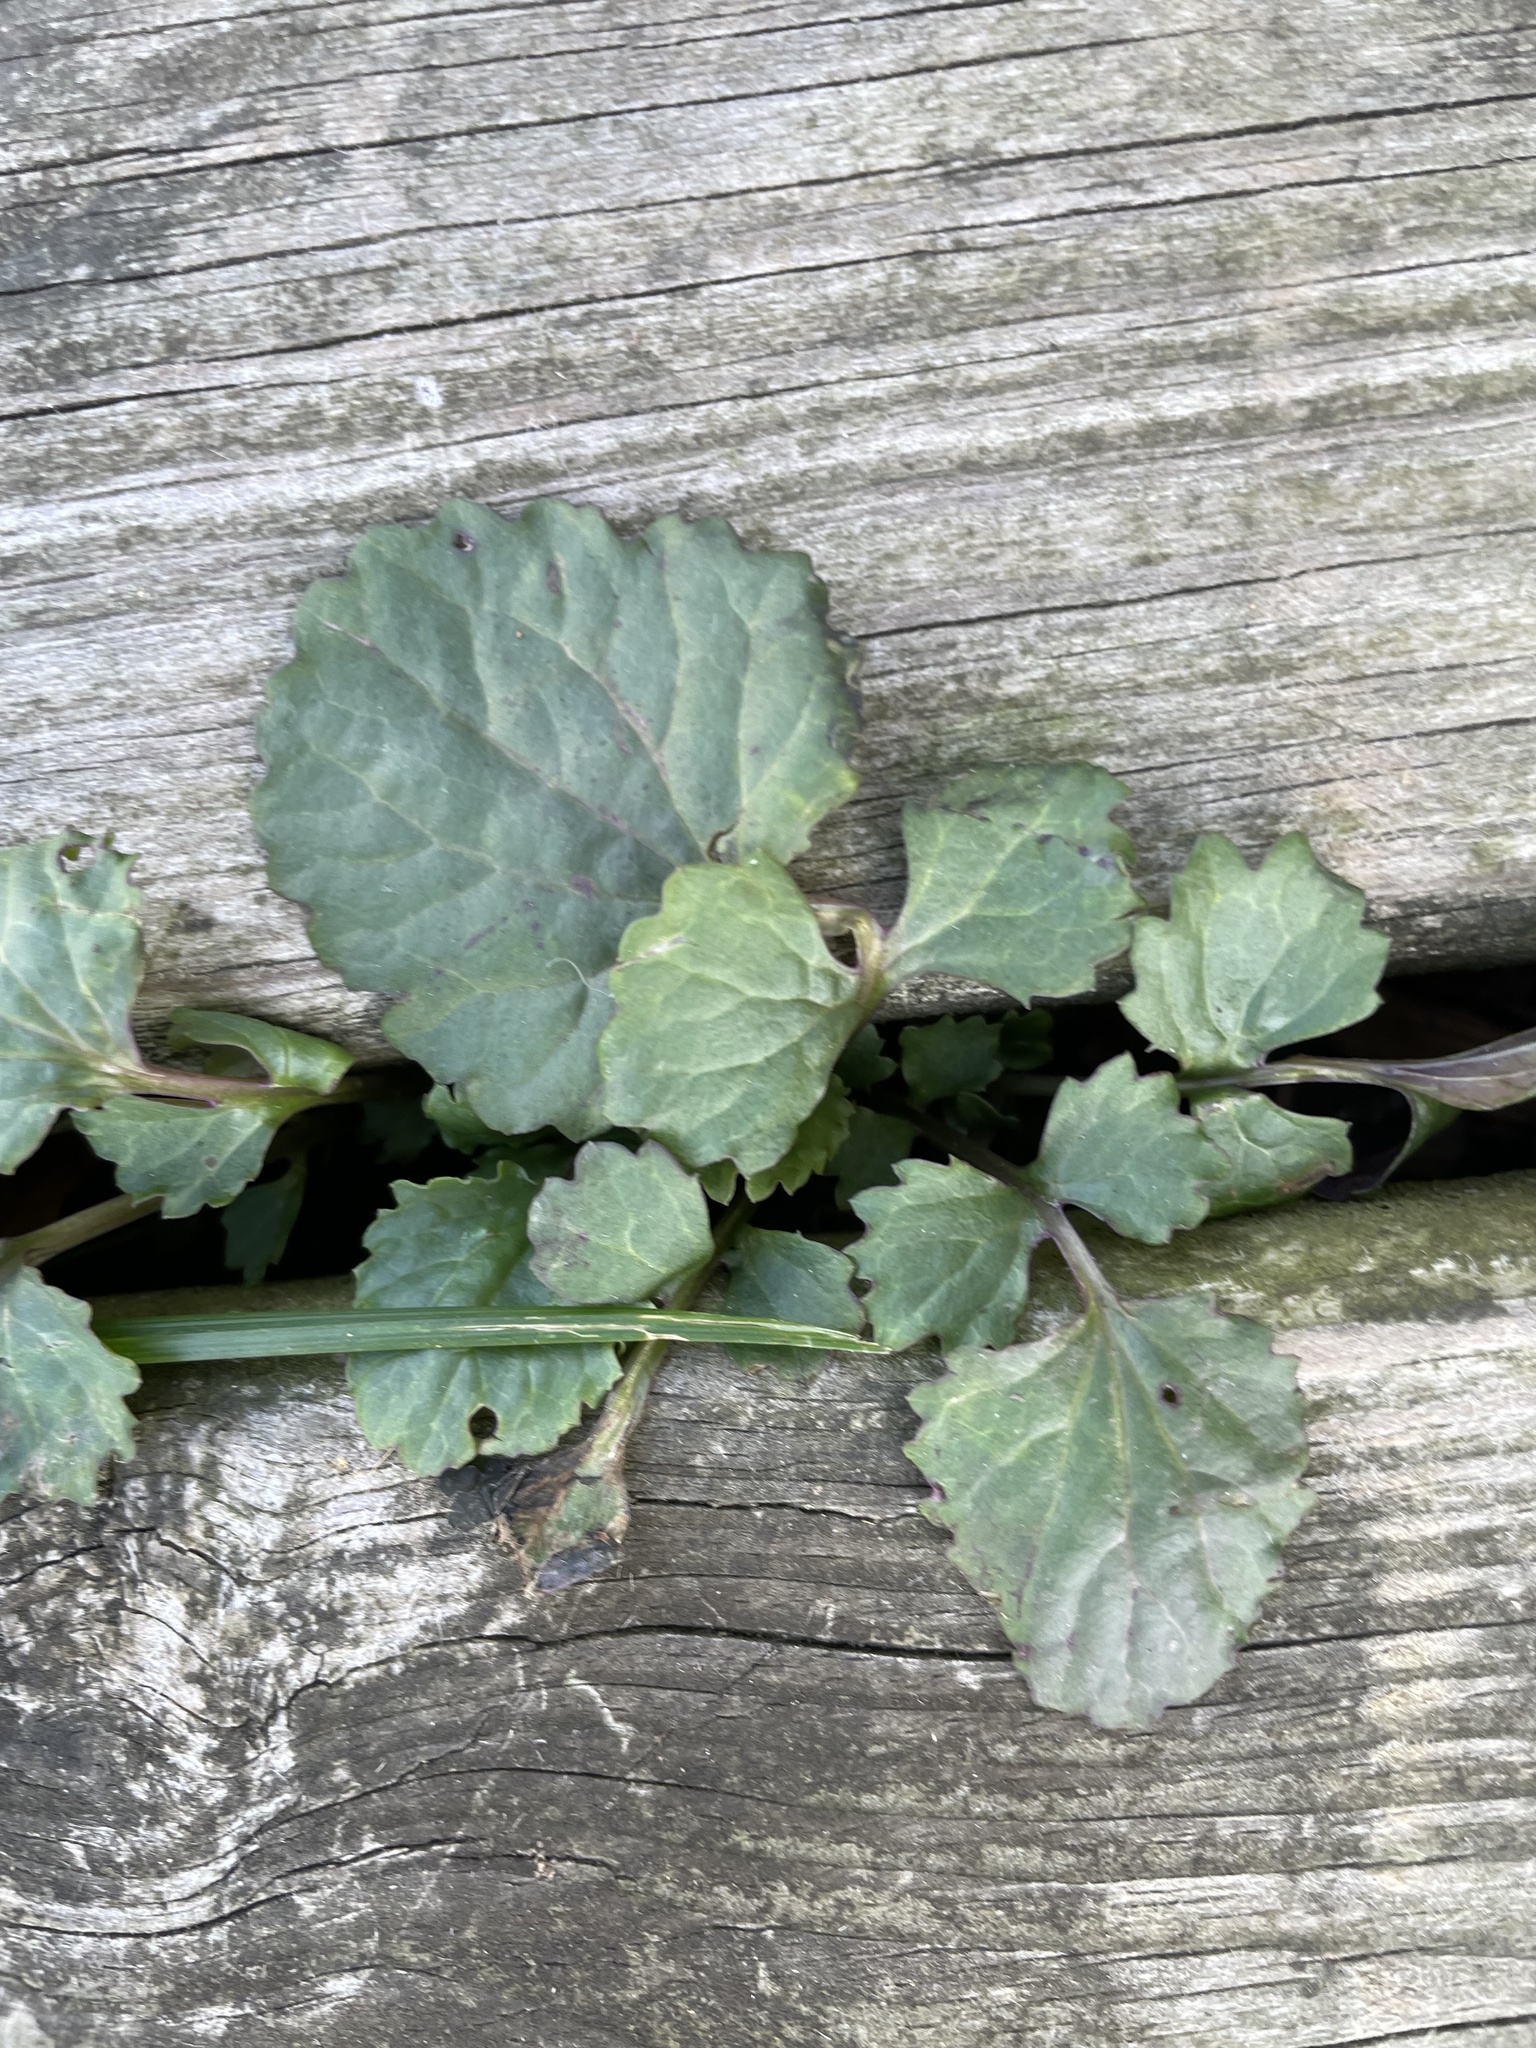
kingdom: Plantae
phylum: Tracheophyta
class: Magnoliopsida
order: Asterales
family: Asteraceae
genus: Packera
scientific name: Packera glabella
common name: Butterweed
